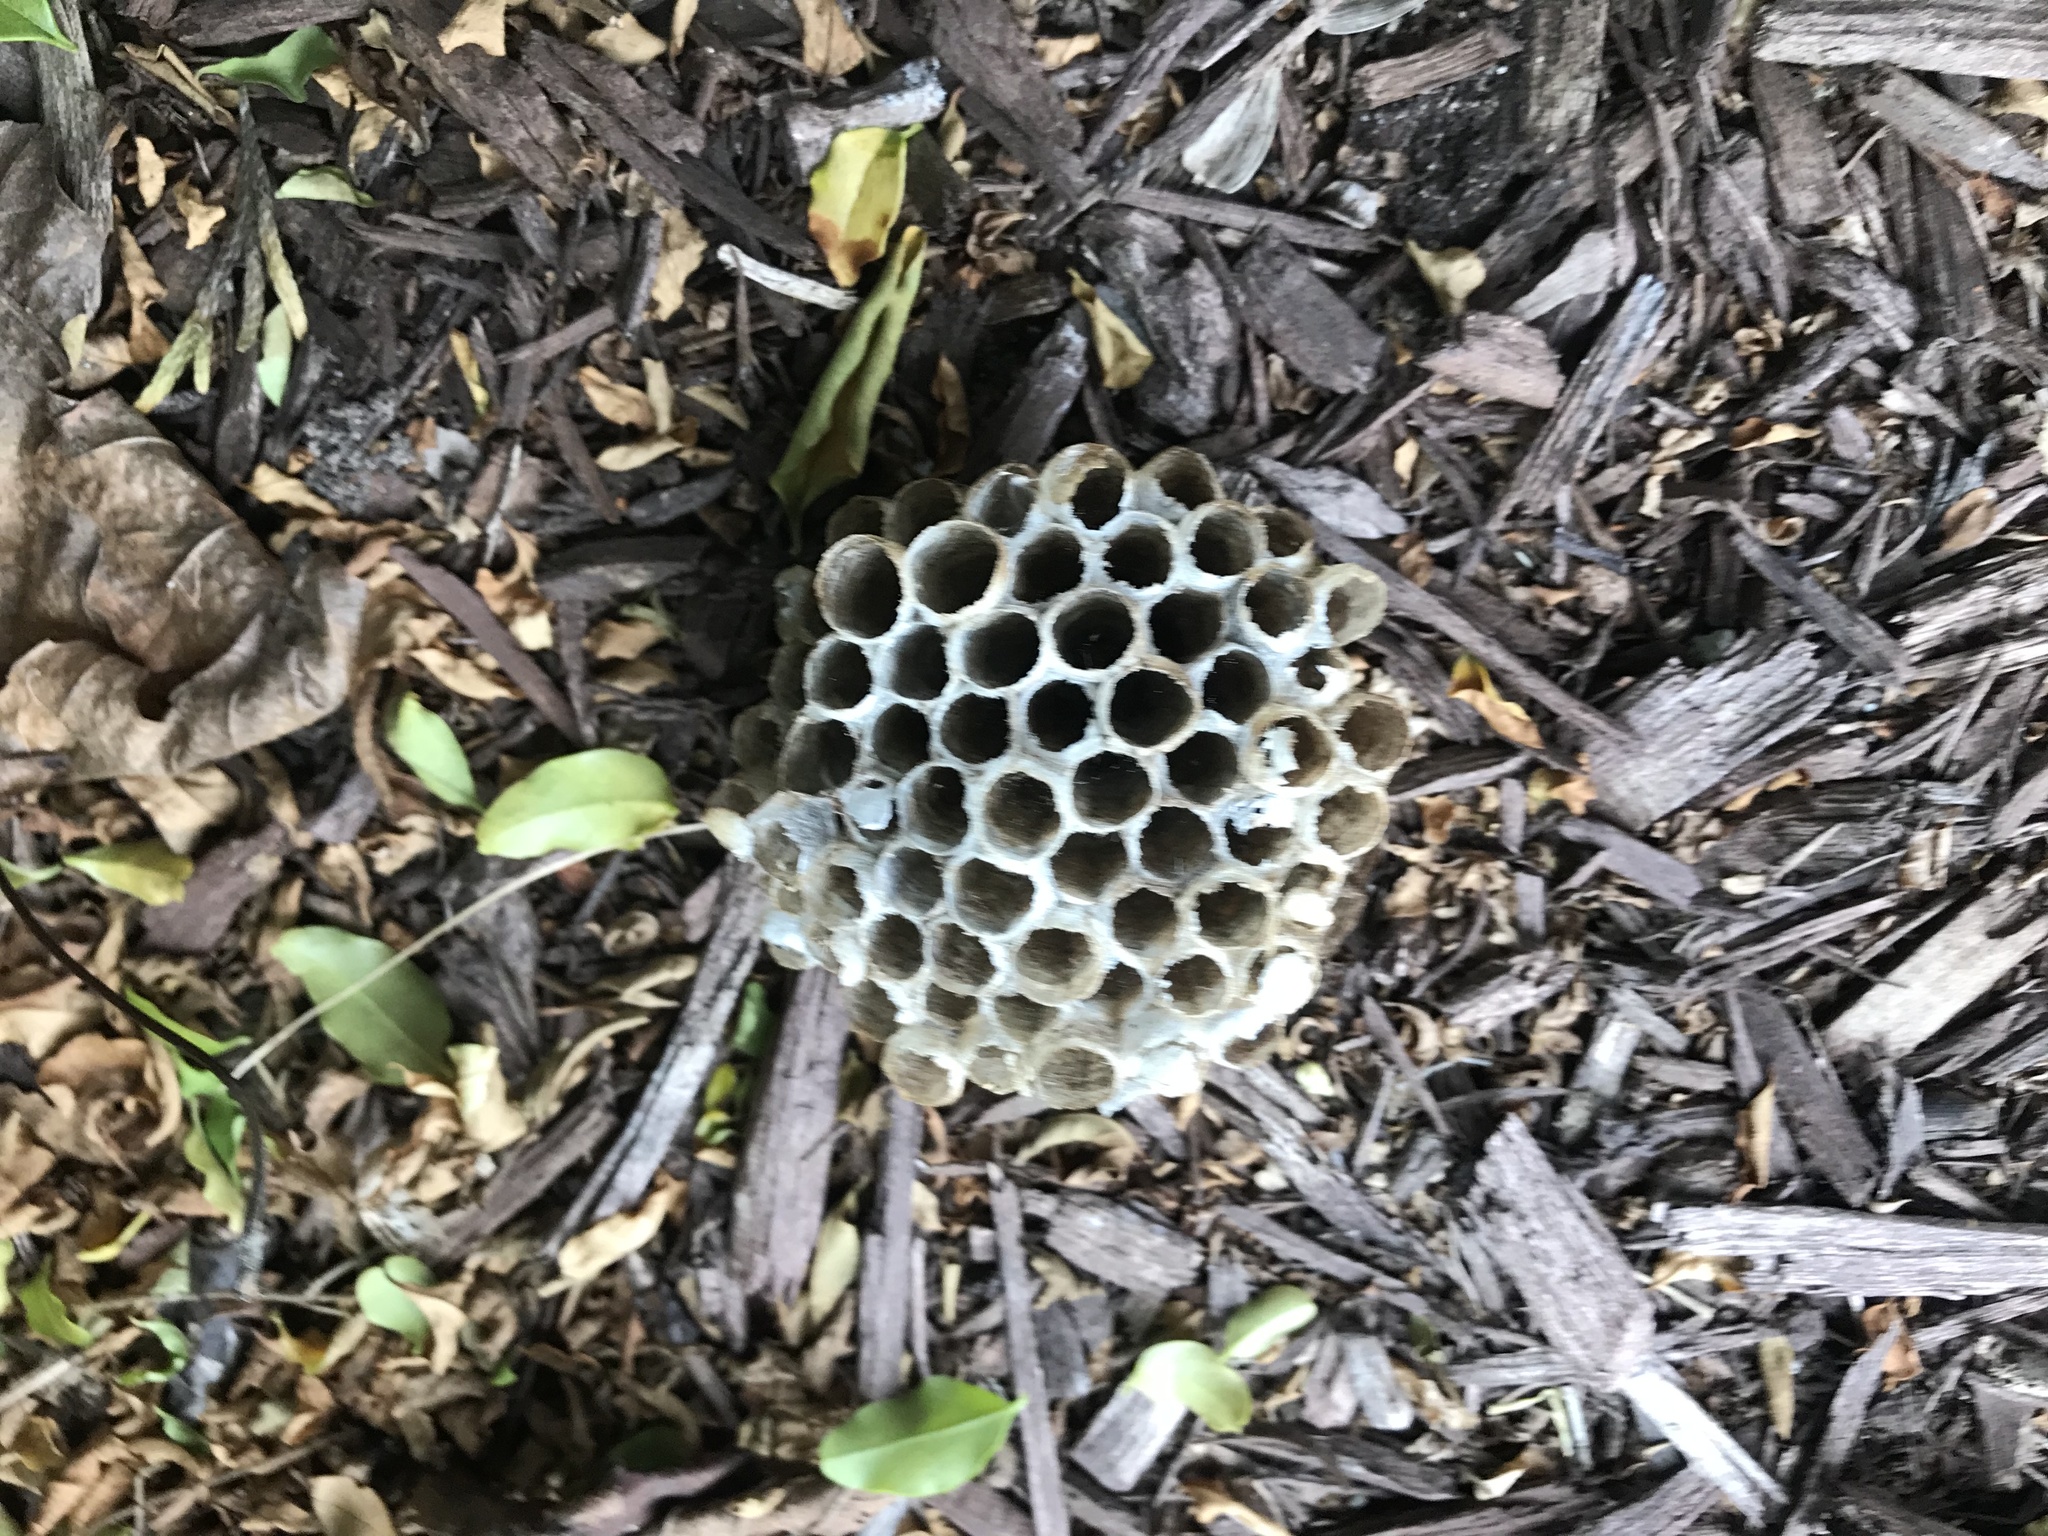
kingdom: Animalia
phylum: Arthropoda
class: Insecta
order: Hymenoptera
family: Eumenidae
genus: Polistes
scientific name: Polistes
